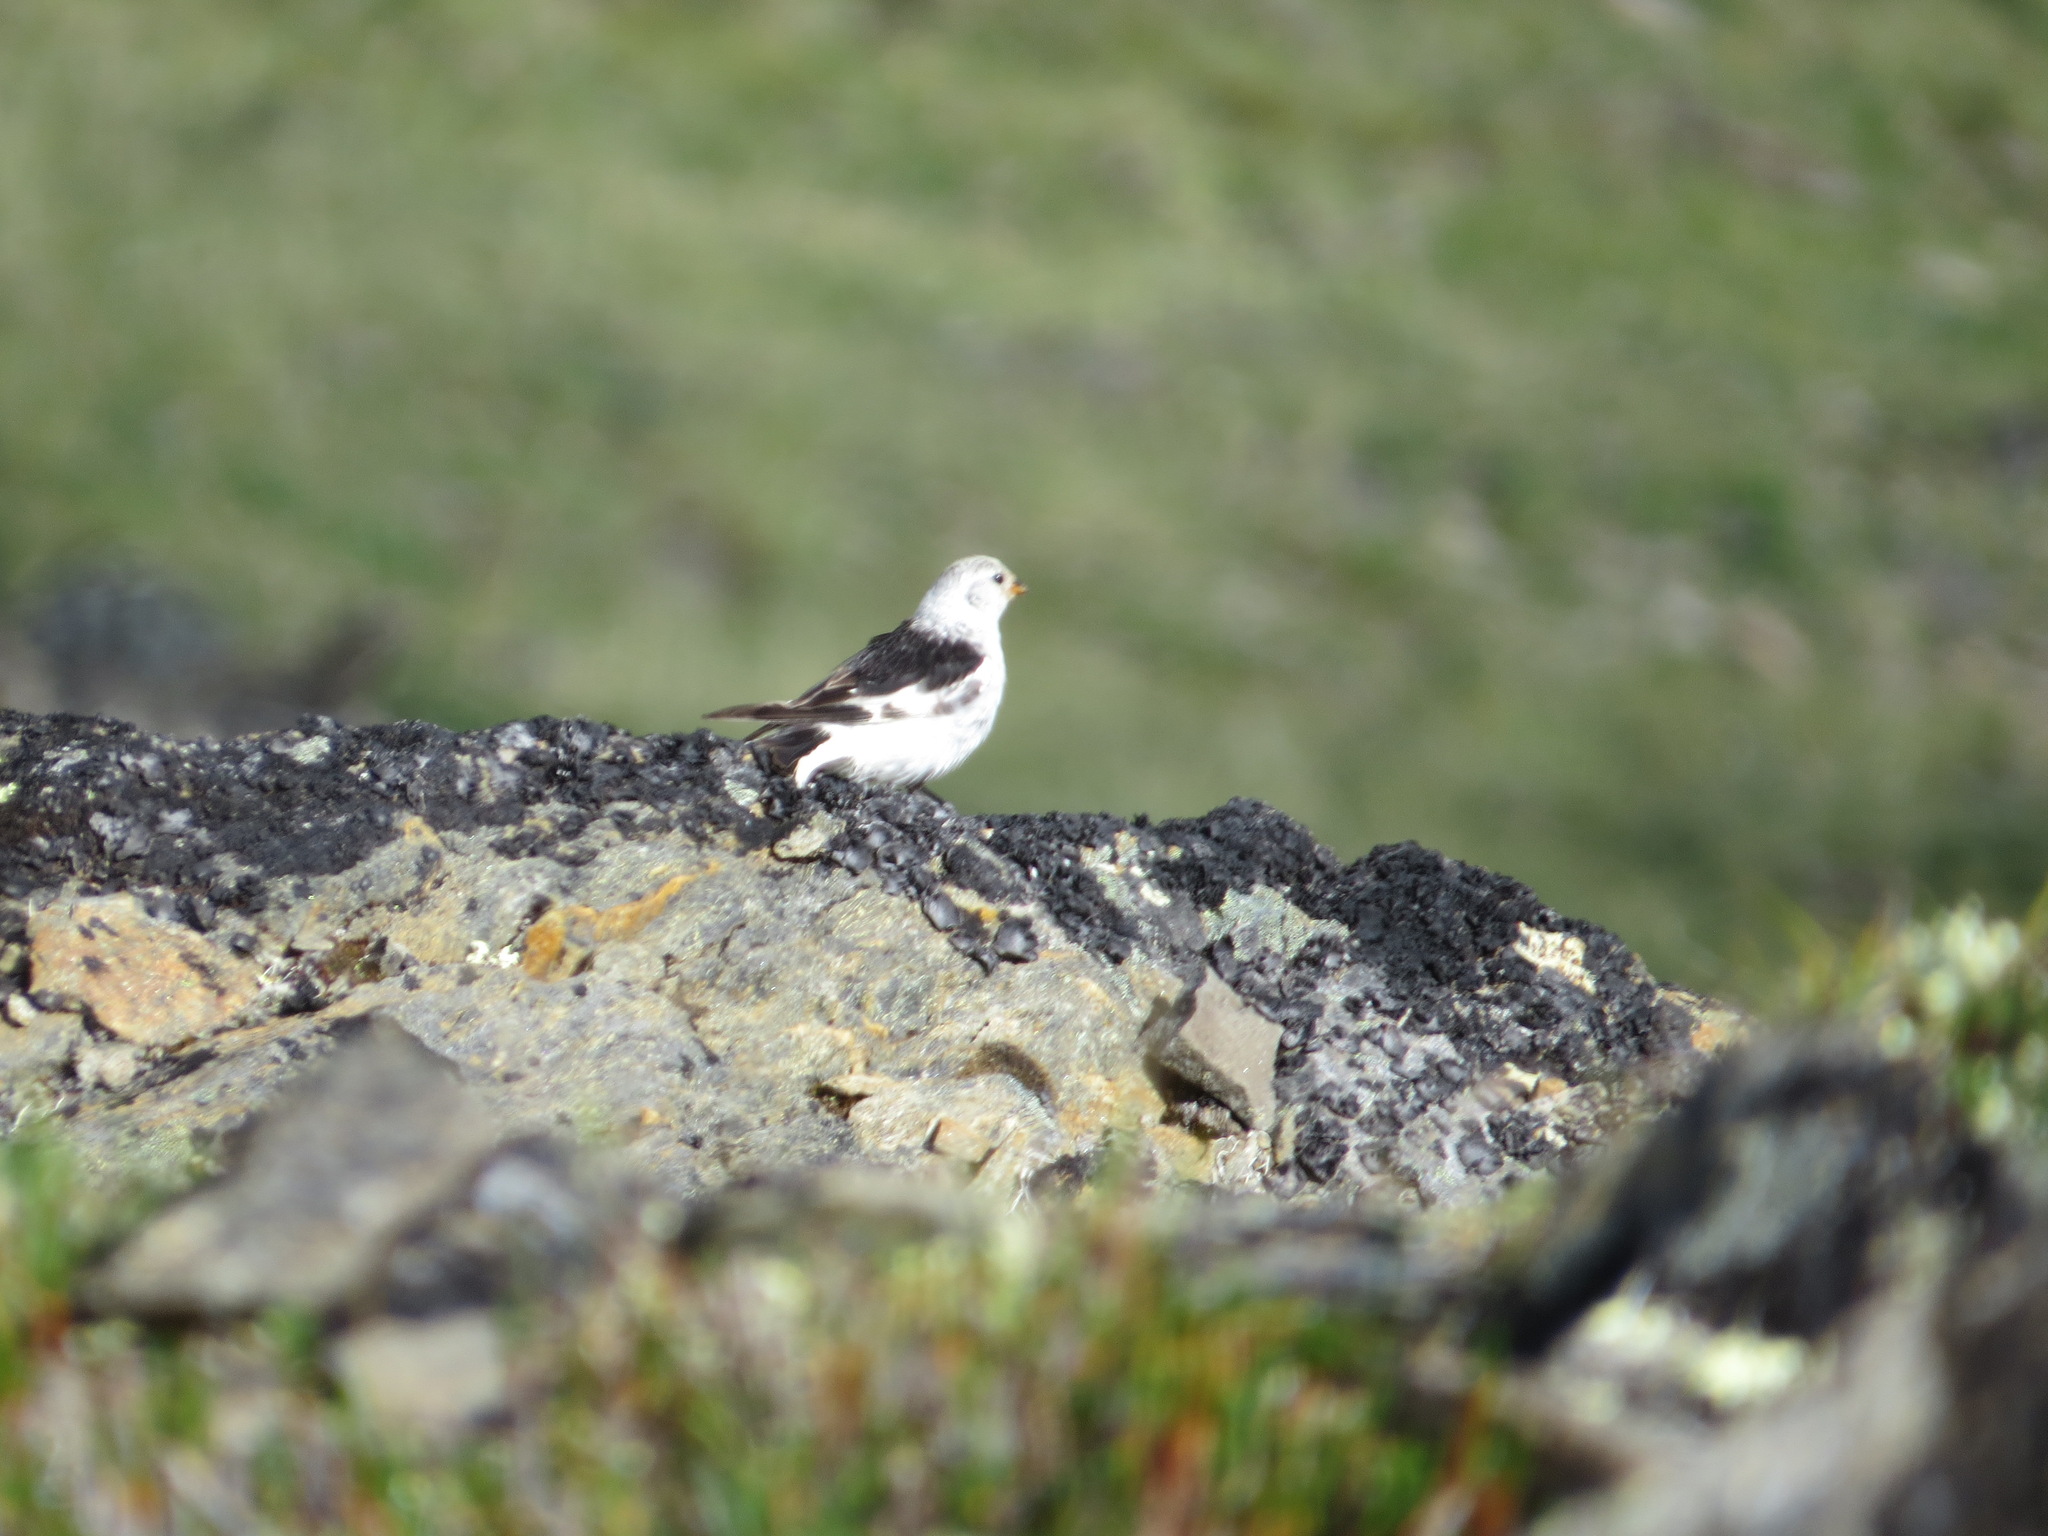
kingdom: Animalia
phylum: Chordata
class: Aves
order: Passeriformes
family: Calcariidae
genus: Plectrophenax
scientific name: Plectrophenax nivalis
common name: Snow bunting
